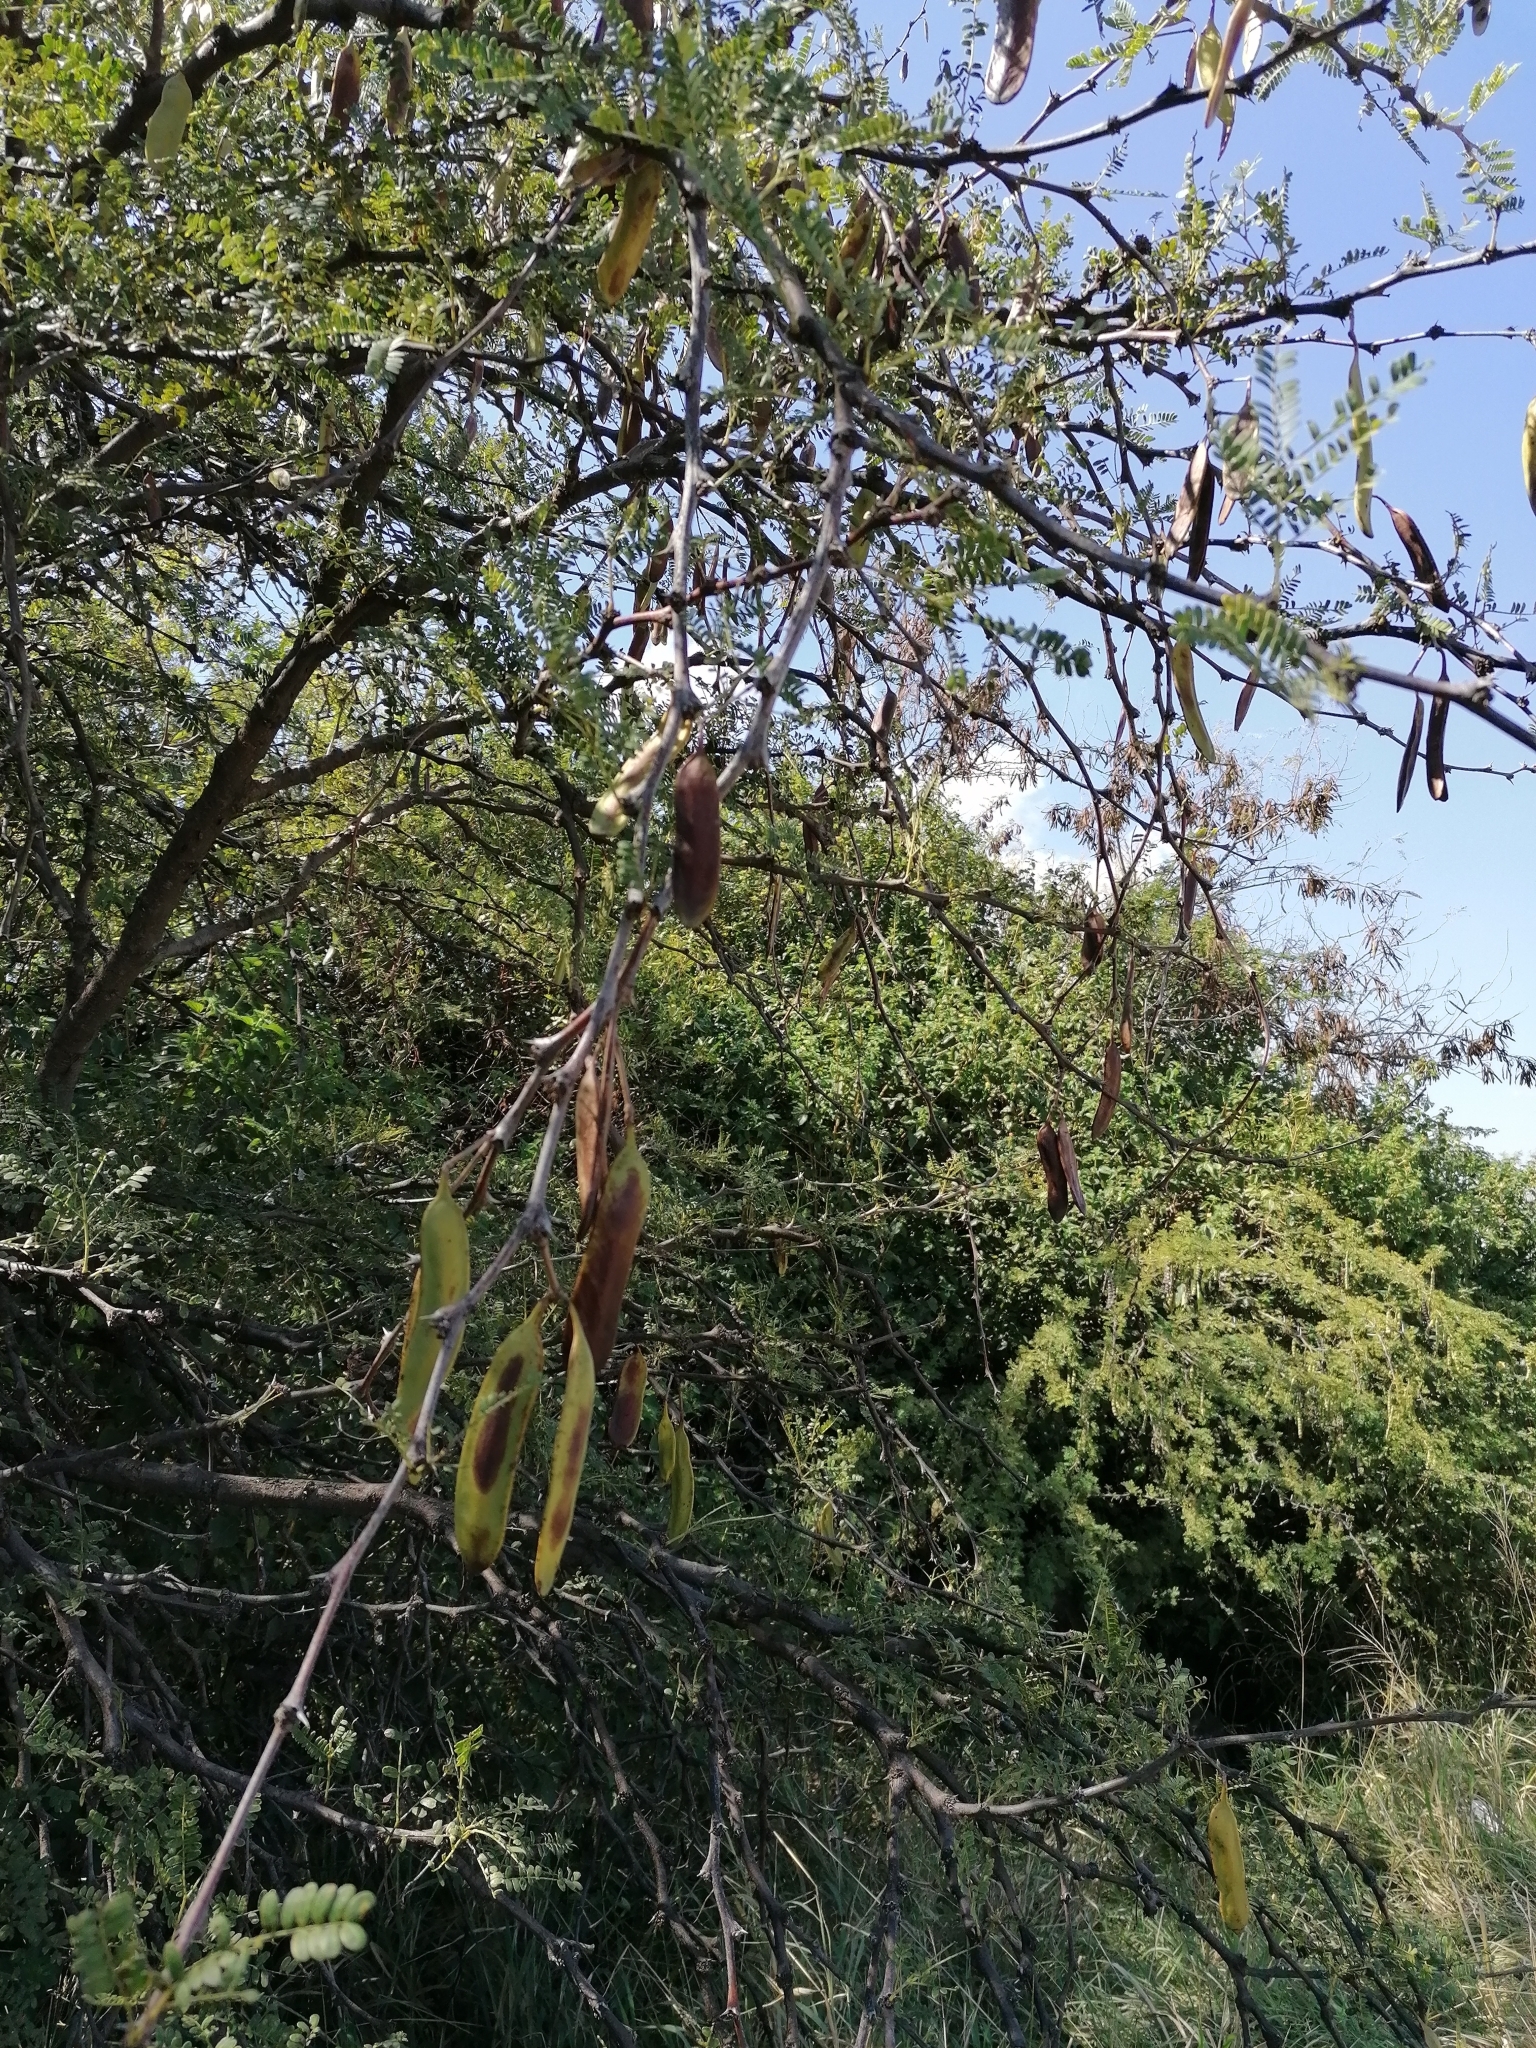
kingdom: Plantae
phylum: Tracheophyta
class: Magnoliopsida
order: Fabales
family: Fabaceae
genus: Vachellia
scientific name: Vachellia robusta
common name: Ankle thorn
